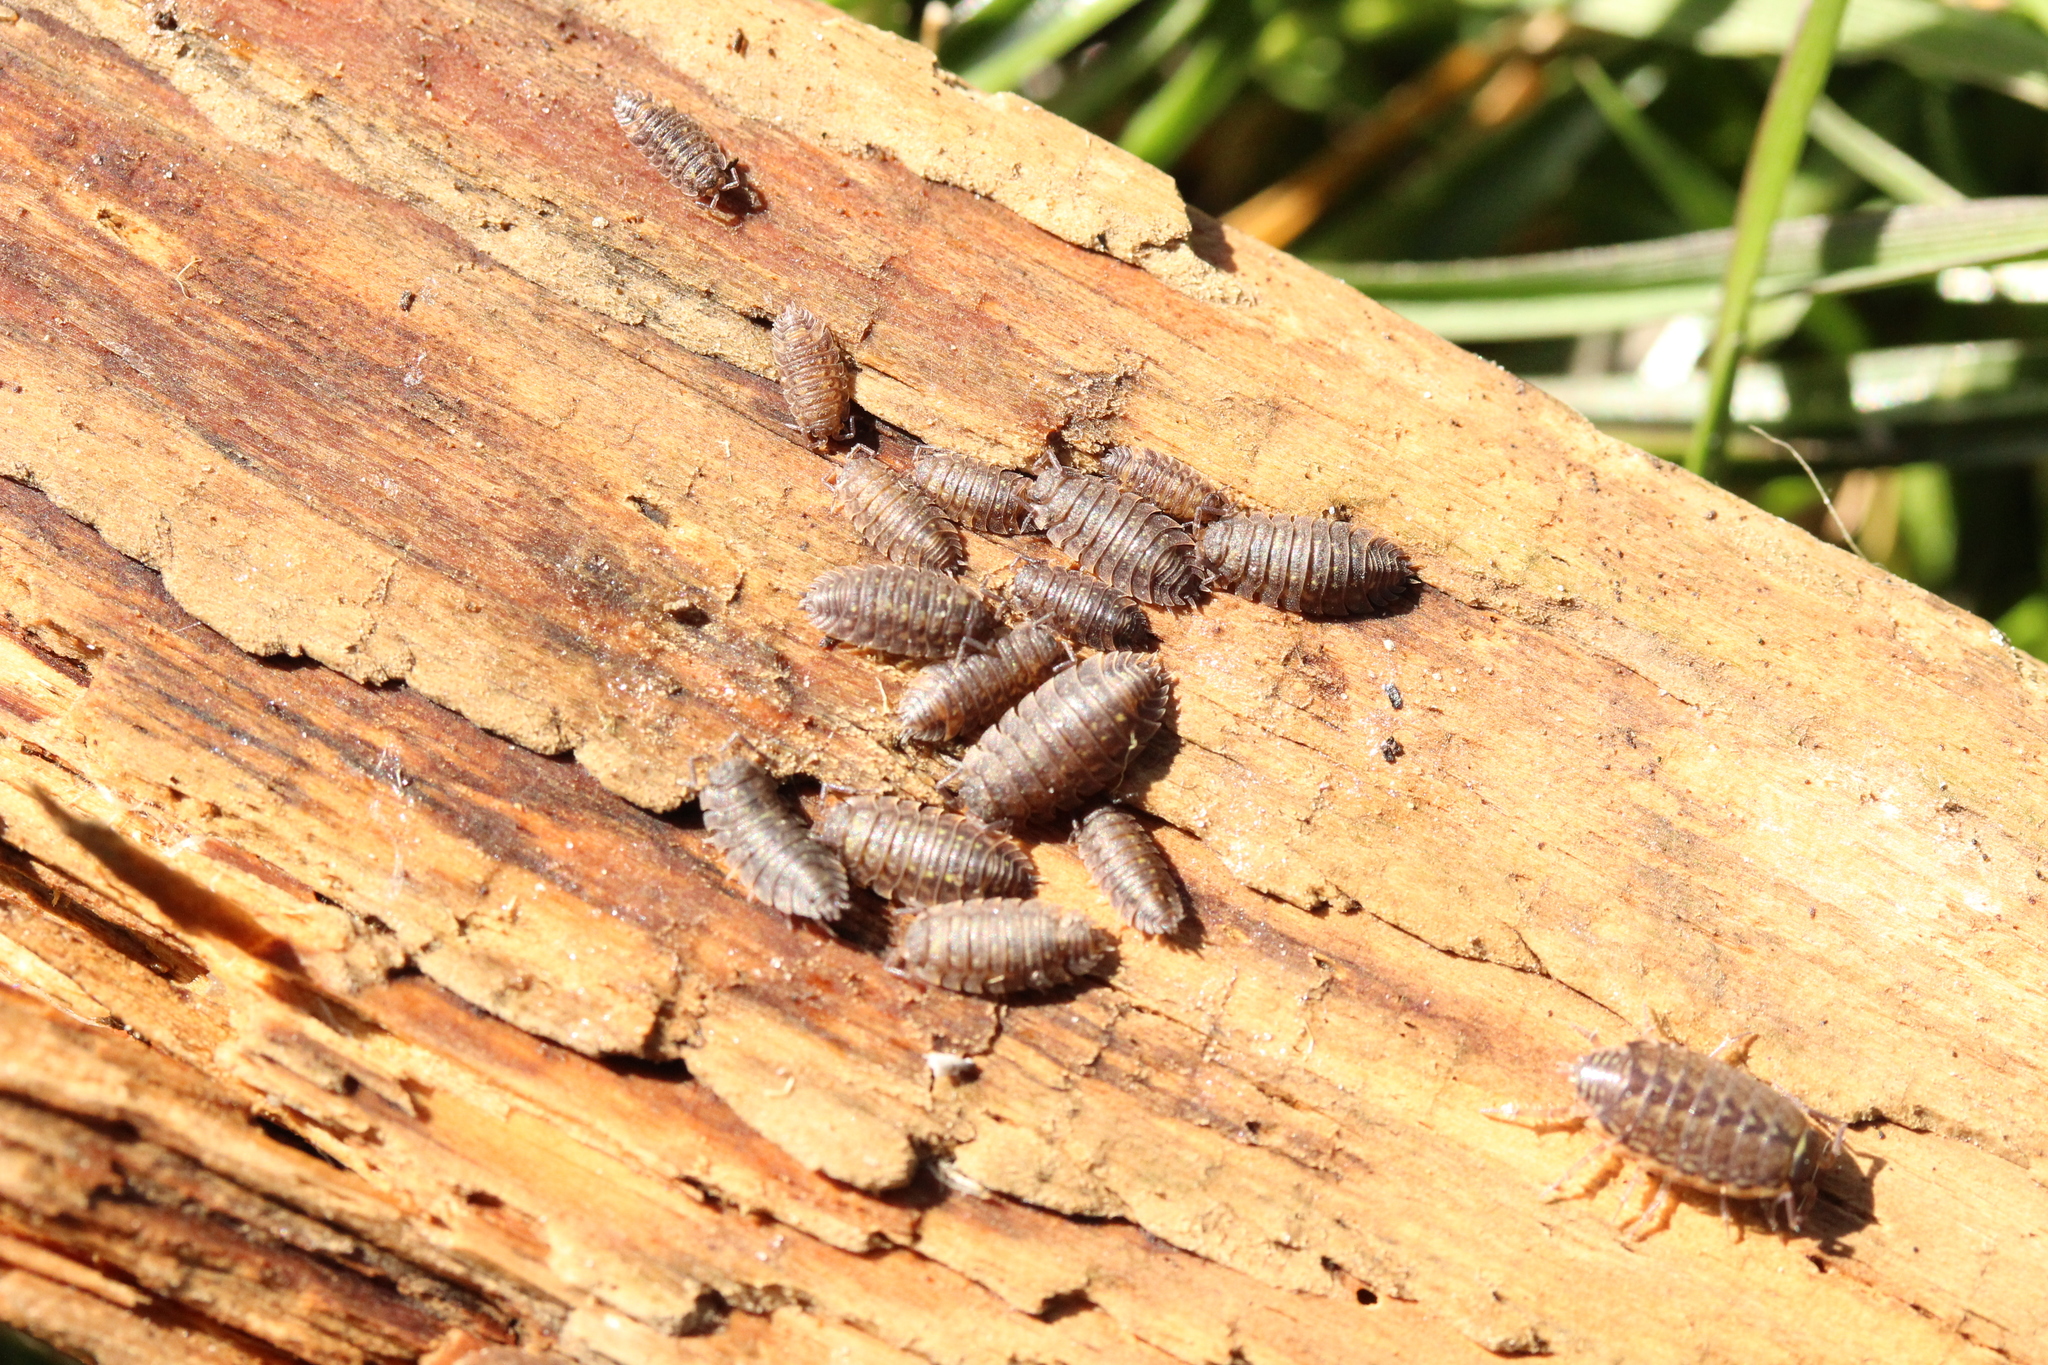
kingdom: Animalia
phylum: Arthropoda
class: Malacostraca
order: Isopoda
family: Oniscidae
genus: Oniscus
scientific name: Oniscus asellus
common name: Common shiny woodlouse
